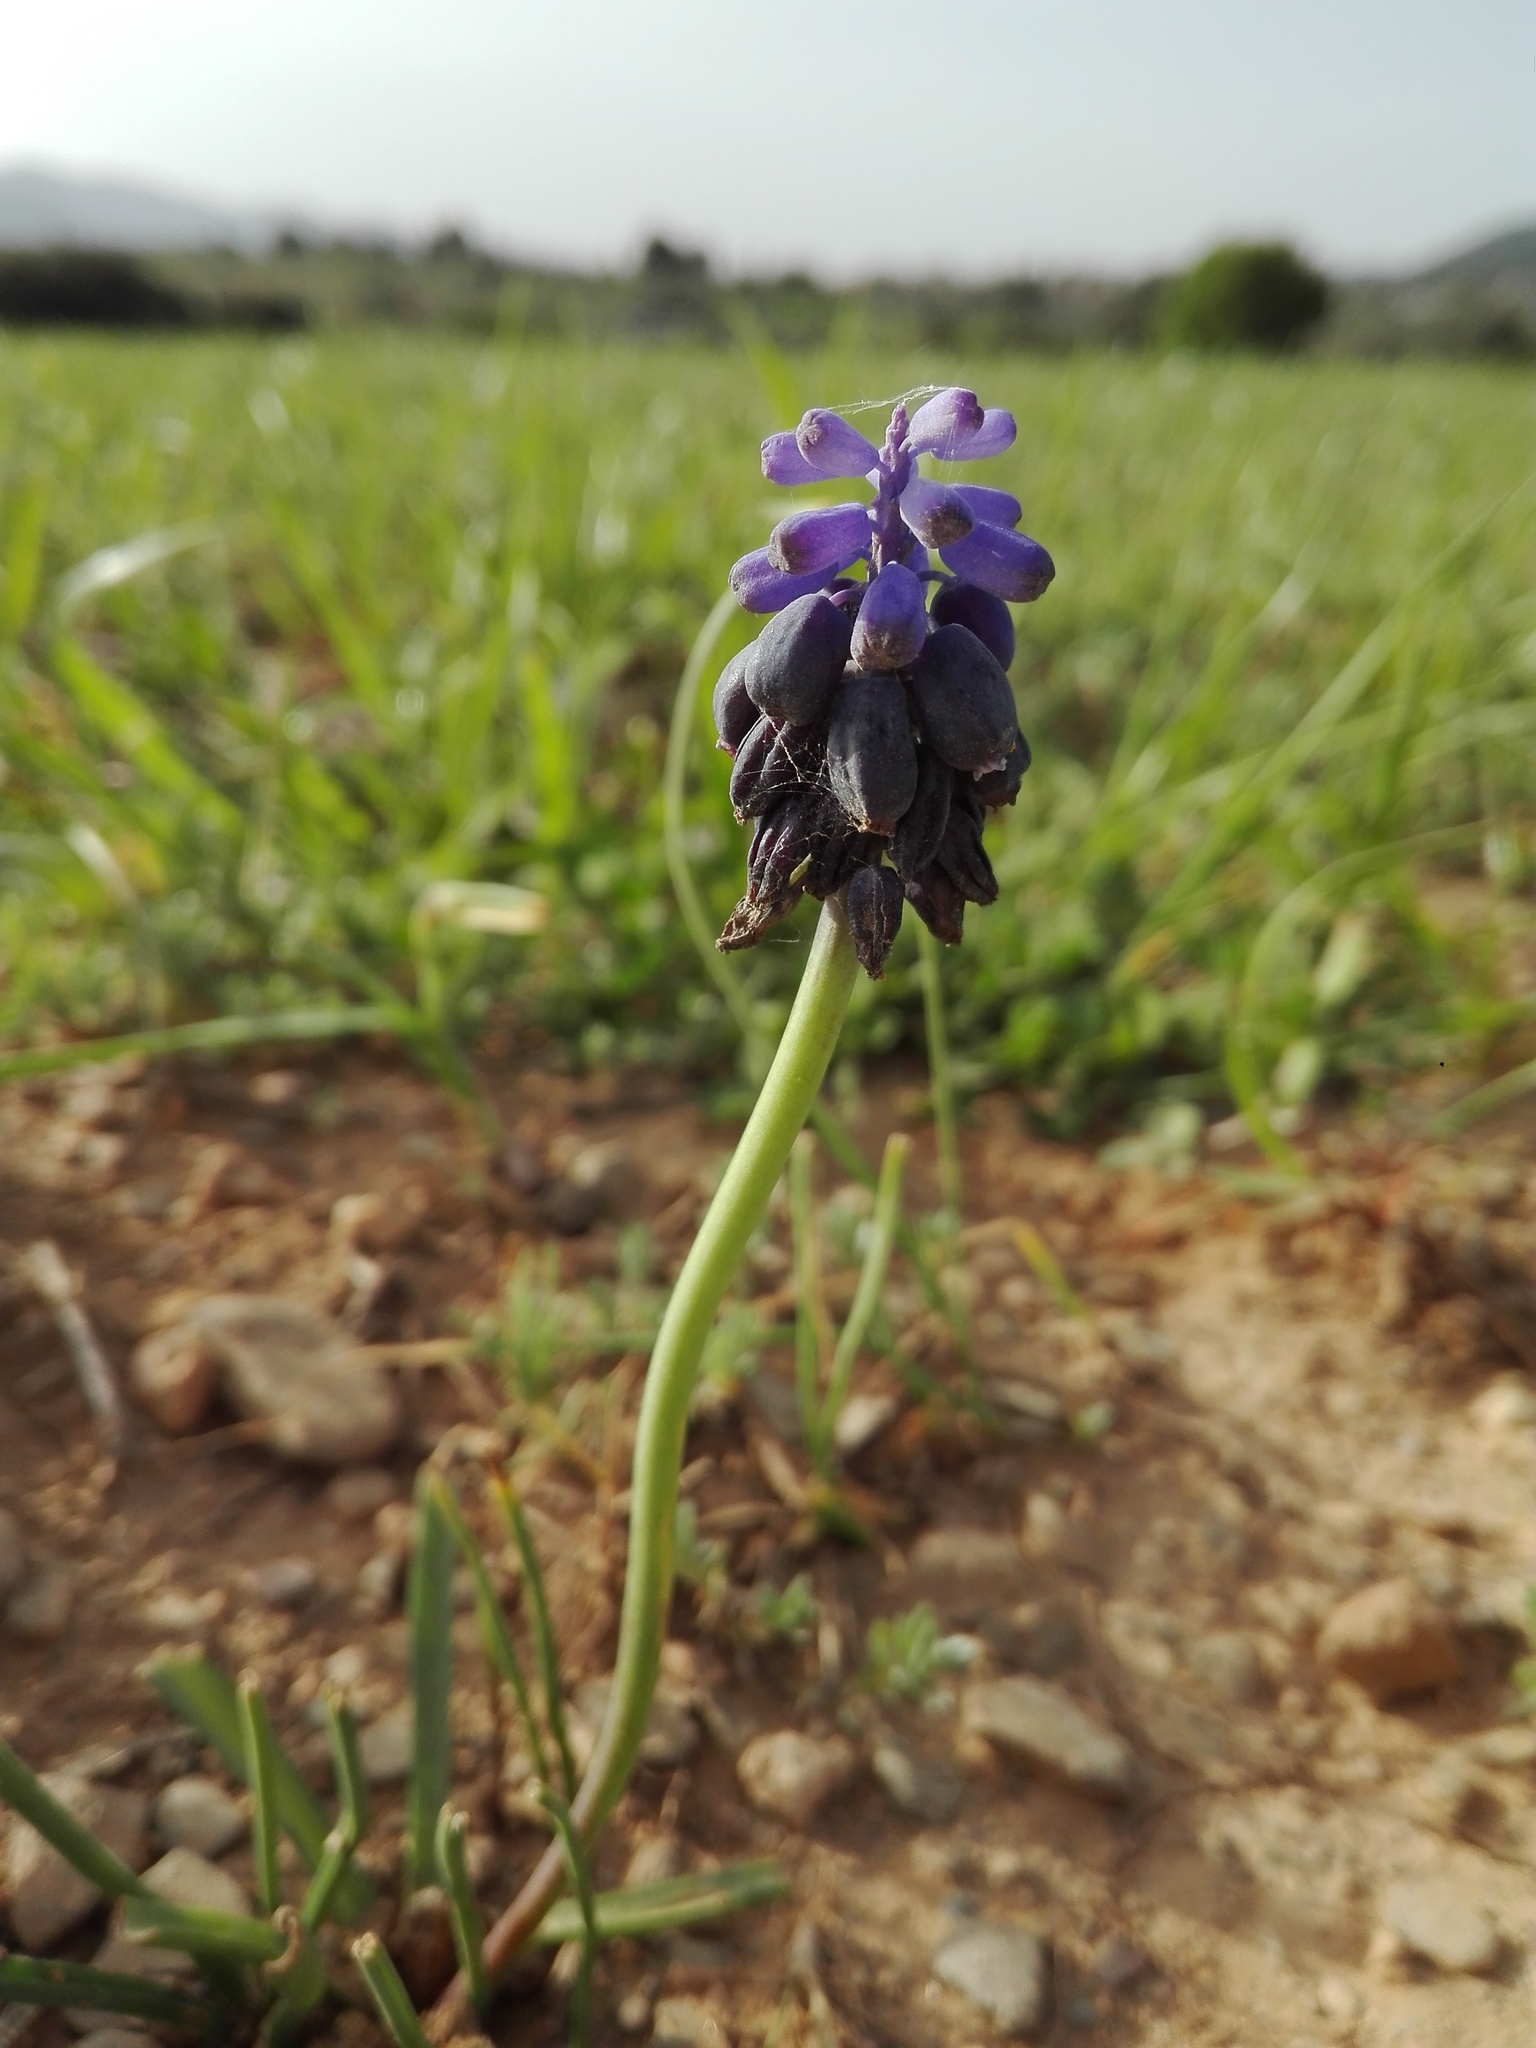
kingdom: Plantae
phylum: Tracheophyta
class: Liliopsida
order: Asparagales
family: Asparagaceae
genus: Muscari
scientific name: Muscari neglectum
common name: Grape-hyacinth
